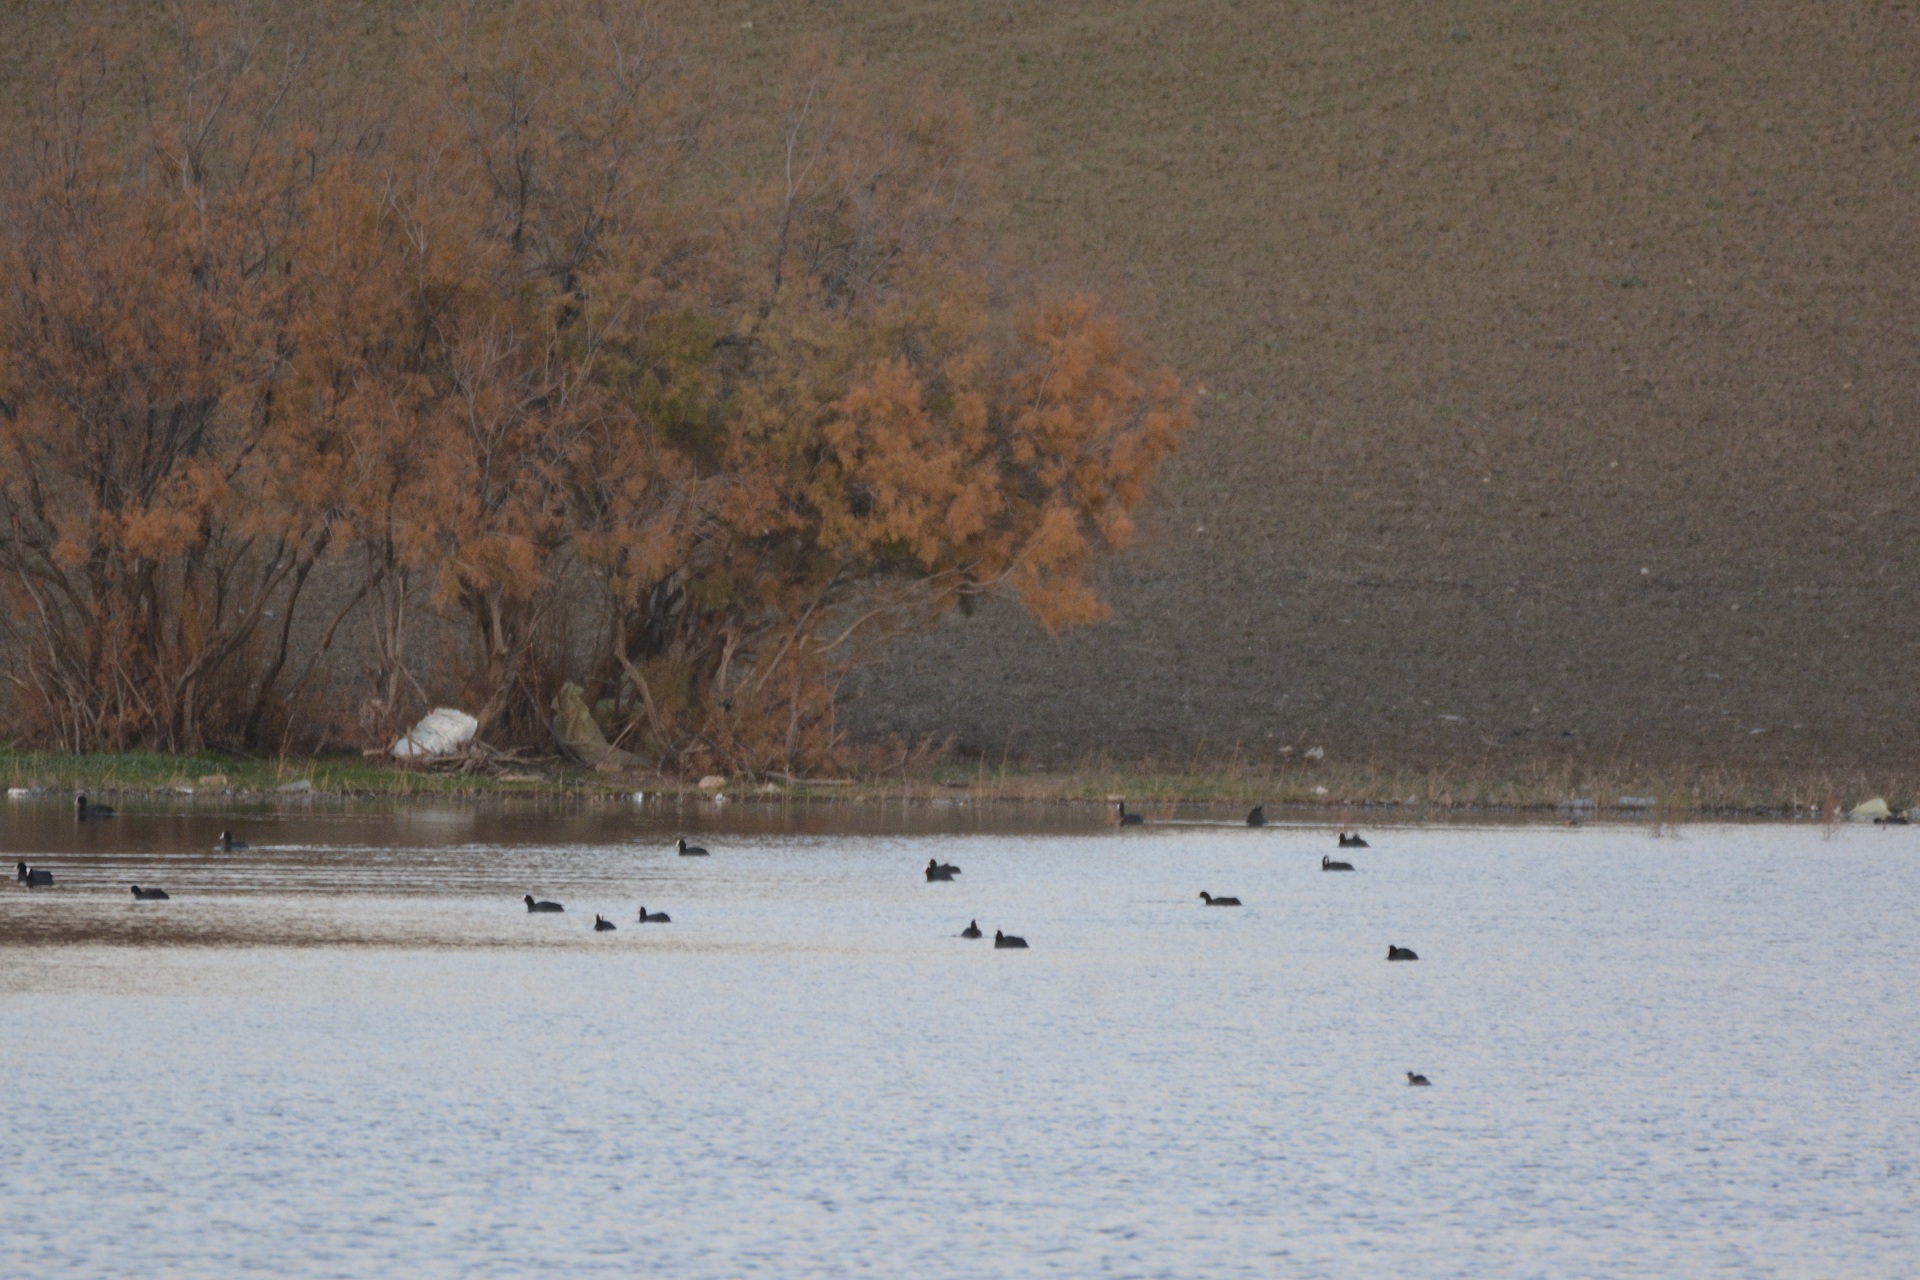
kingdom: Animalia
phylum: Chordata
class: Aves
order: Gruiformes
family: Rallidae
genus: Fulica
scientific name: Fulica atra
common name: Eurasian coot
